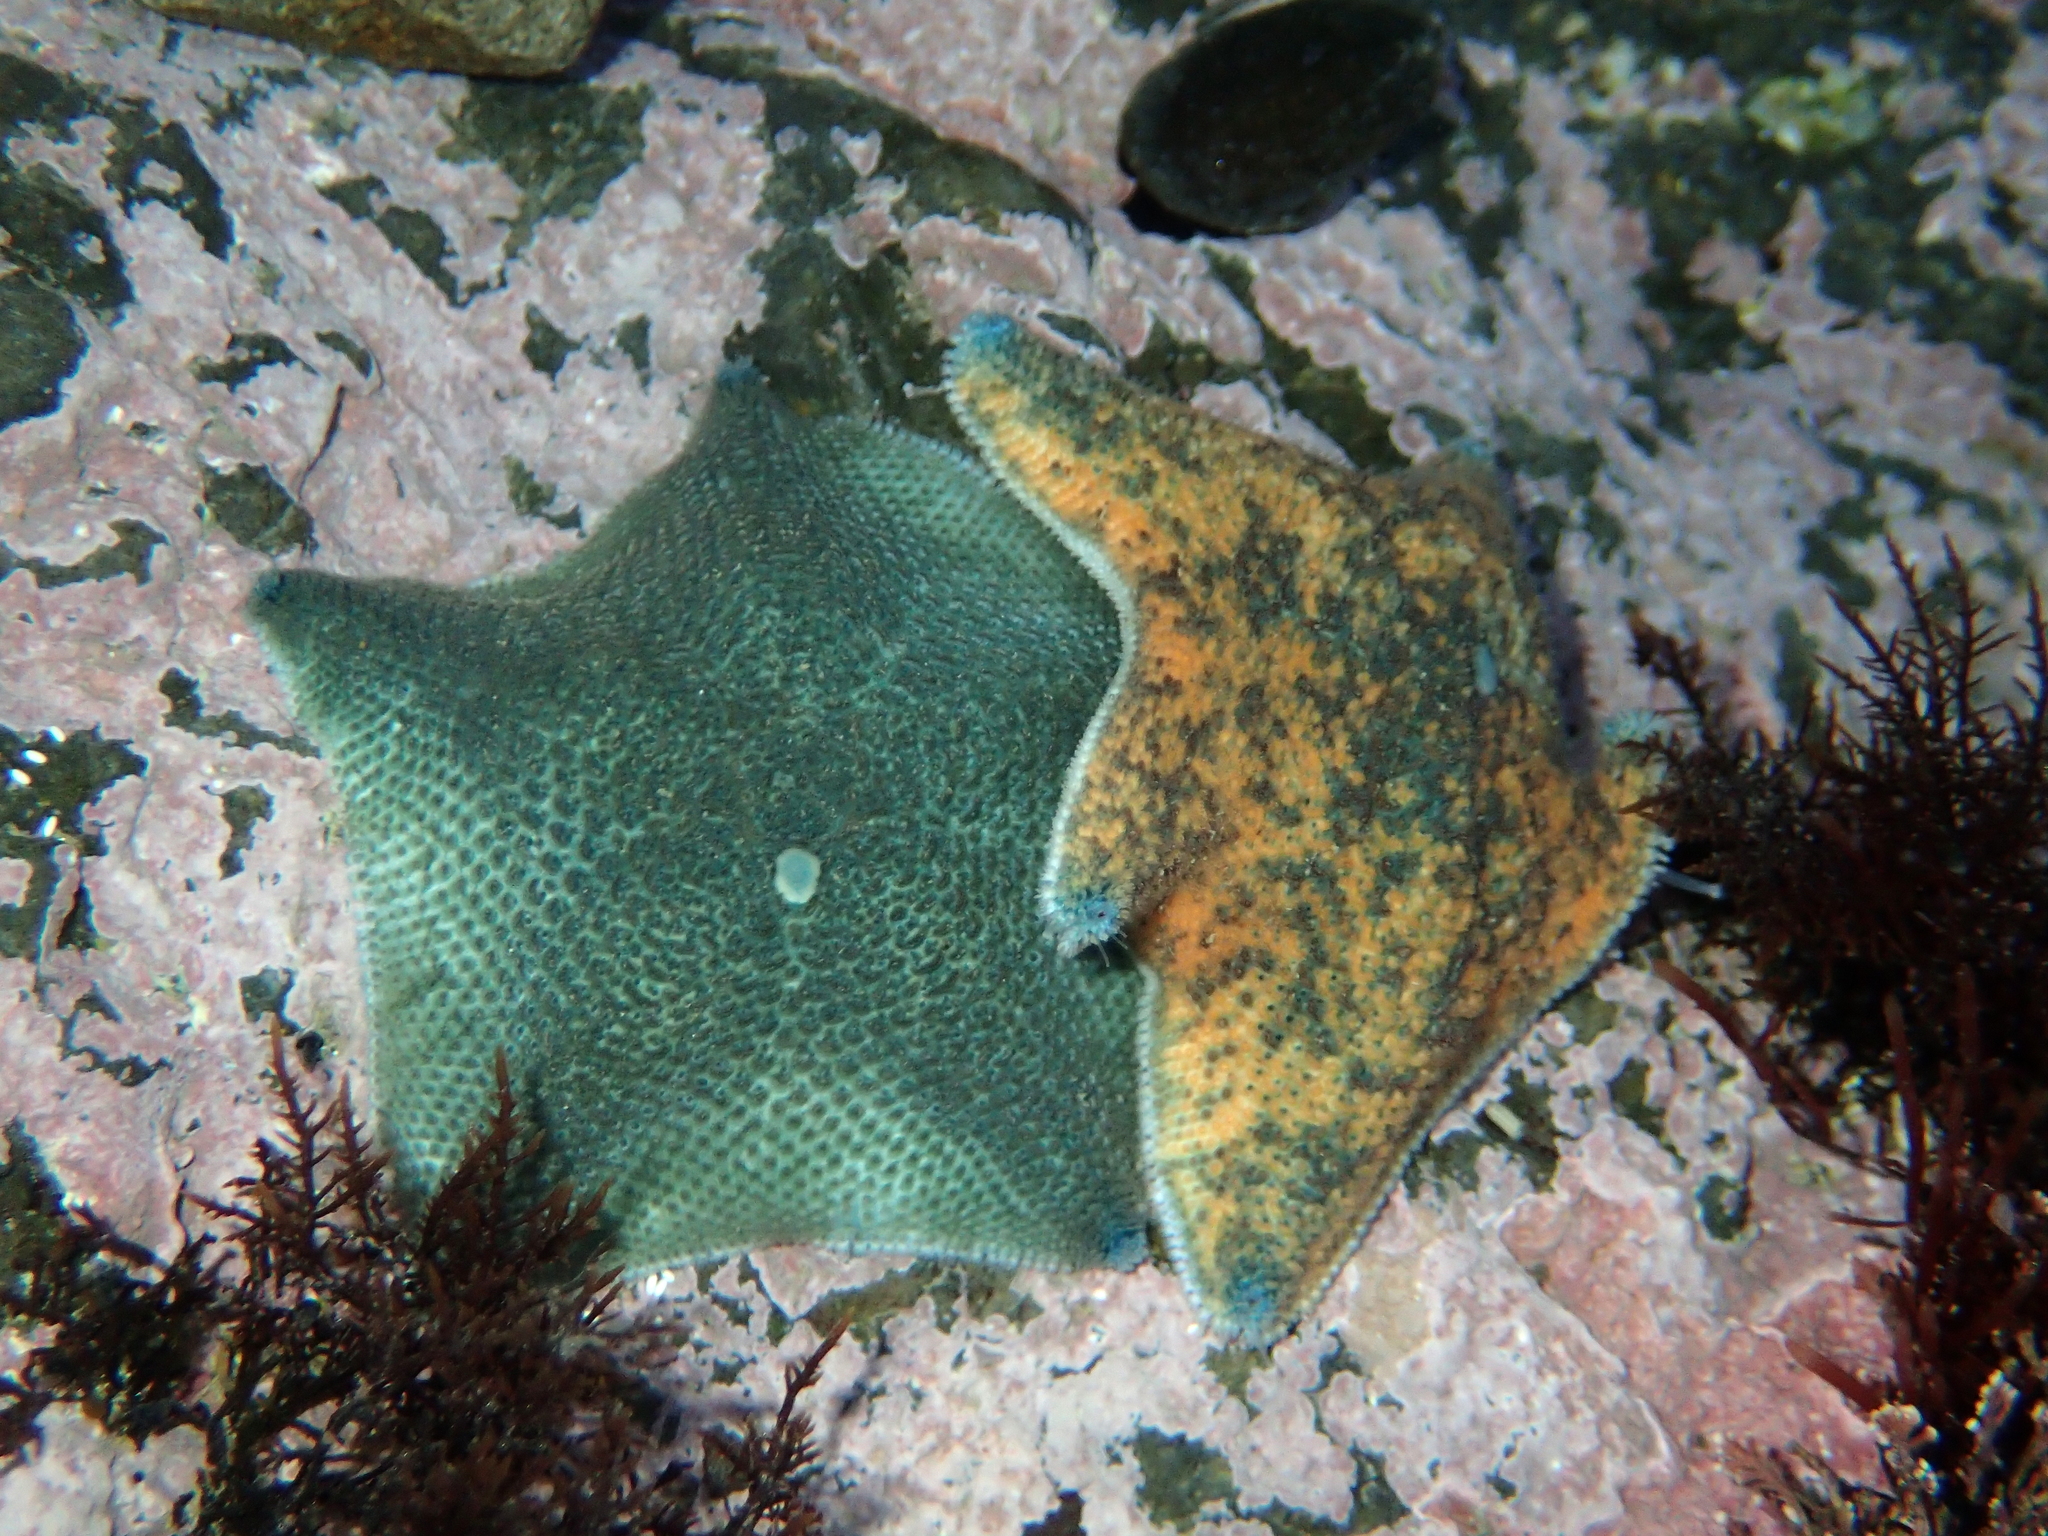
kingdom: Animalia
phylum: Echinodermata
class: Asteroidea
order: Valvatida
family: Asterinidae
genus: Patiriella
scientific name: Patiriella regularis
